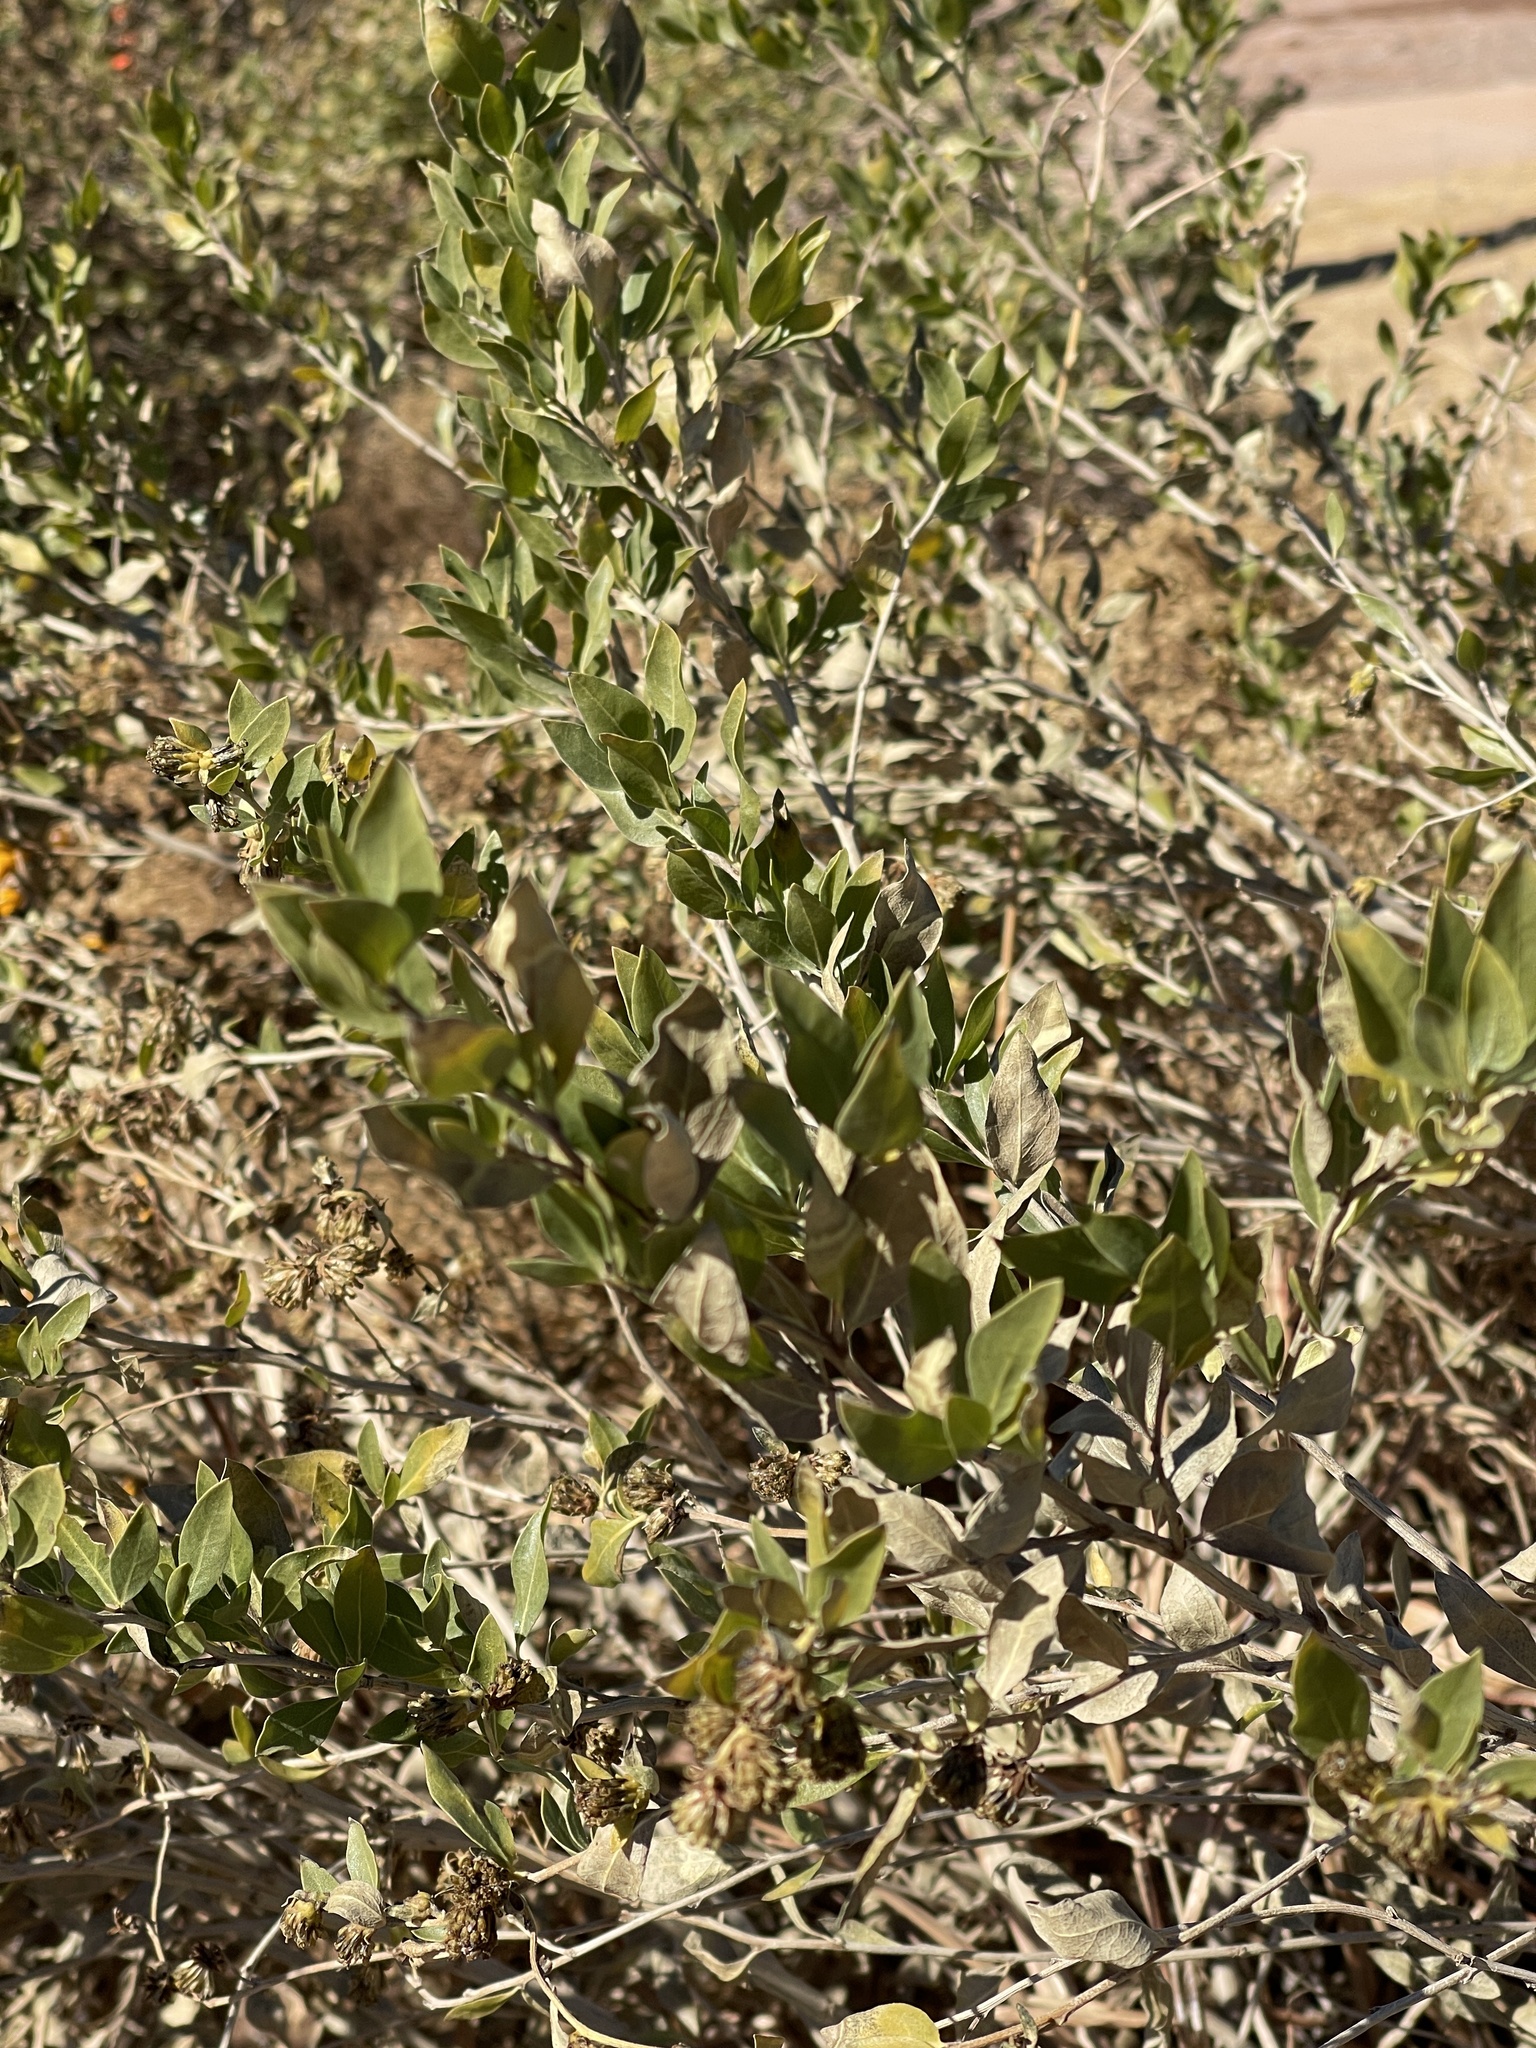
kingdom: Plantae
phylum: Tracheophyta
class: Magnoliopsida
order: Asterales
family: Asteraceae
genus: Flourensia
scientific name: Flourensia cernua
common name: Varnishbush
